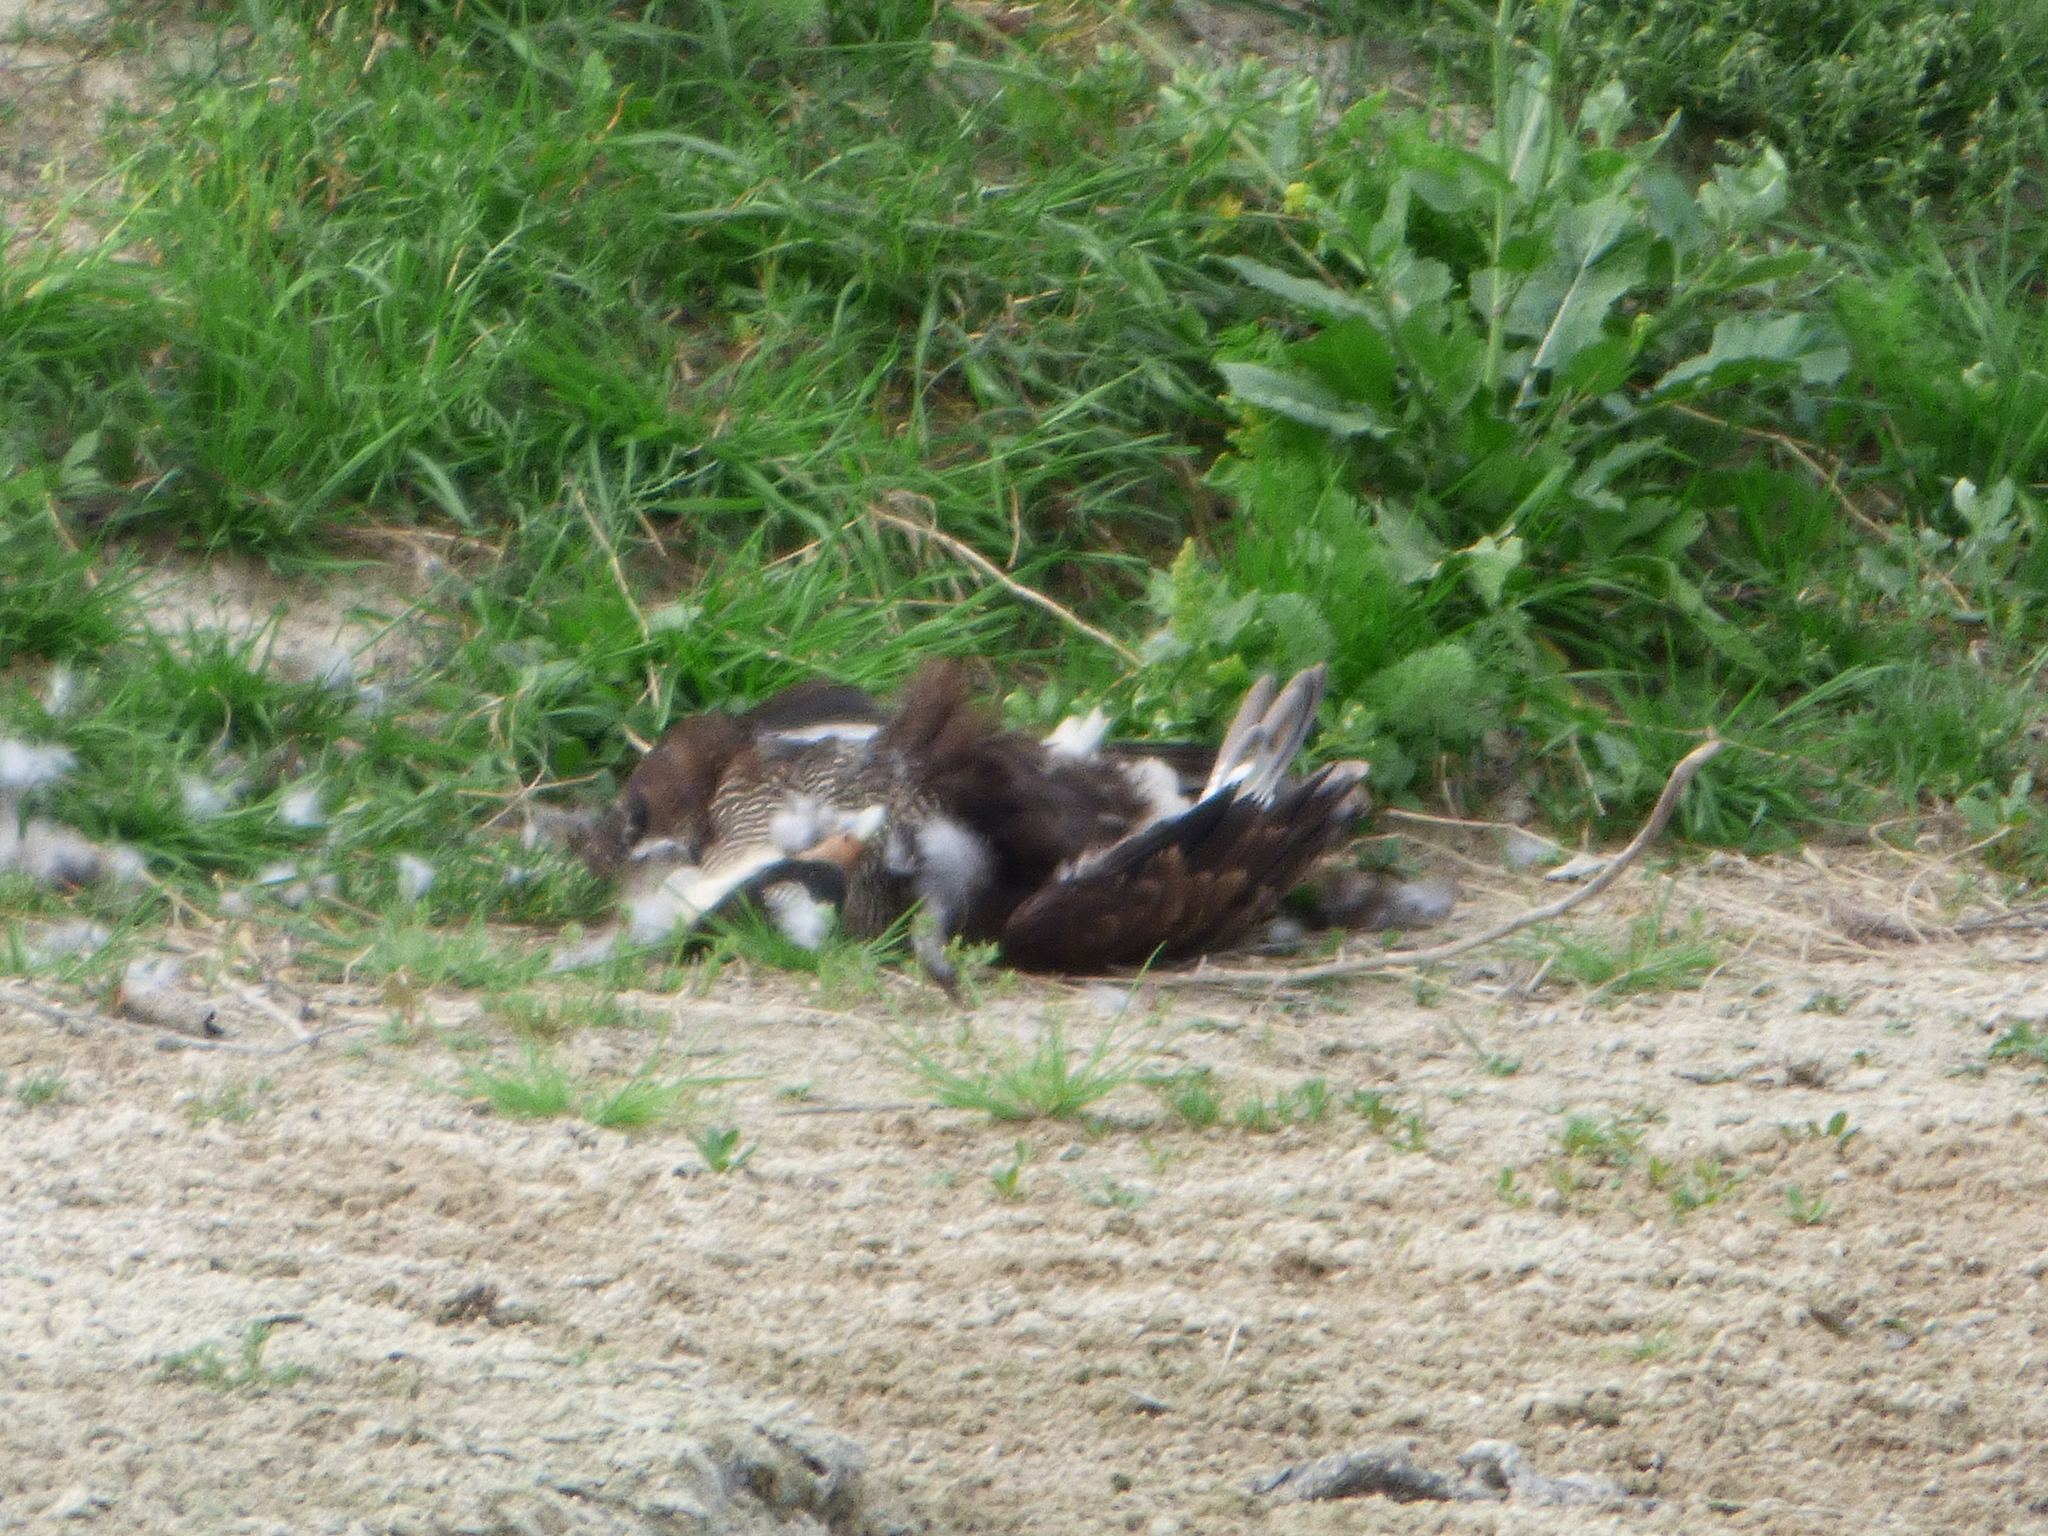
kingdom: Animalia
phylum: Chordata
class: Aves
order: Falconiformes
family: Falconidae
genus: Caracara
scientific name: Caracara plancus
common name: Southern caracara
